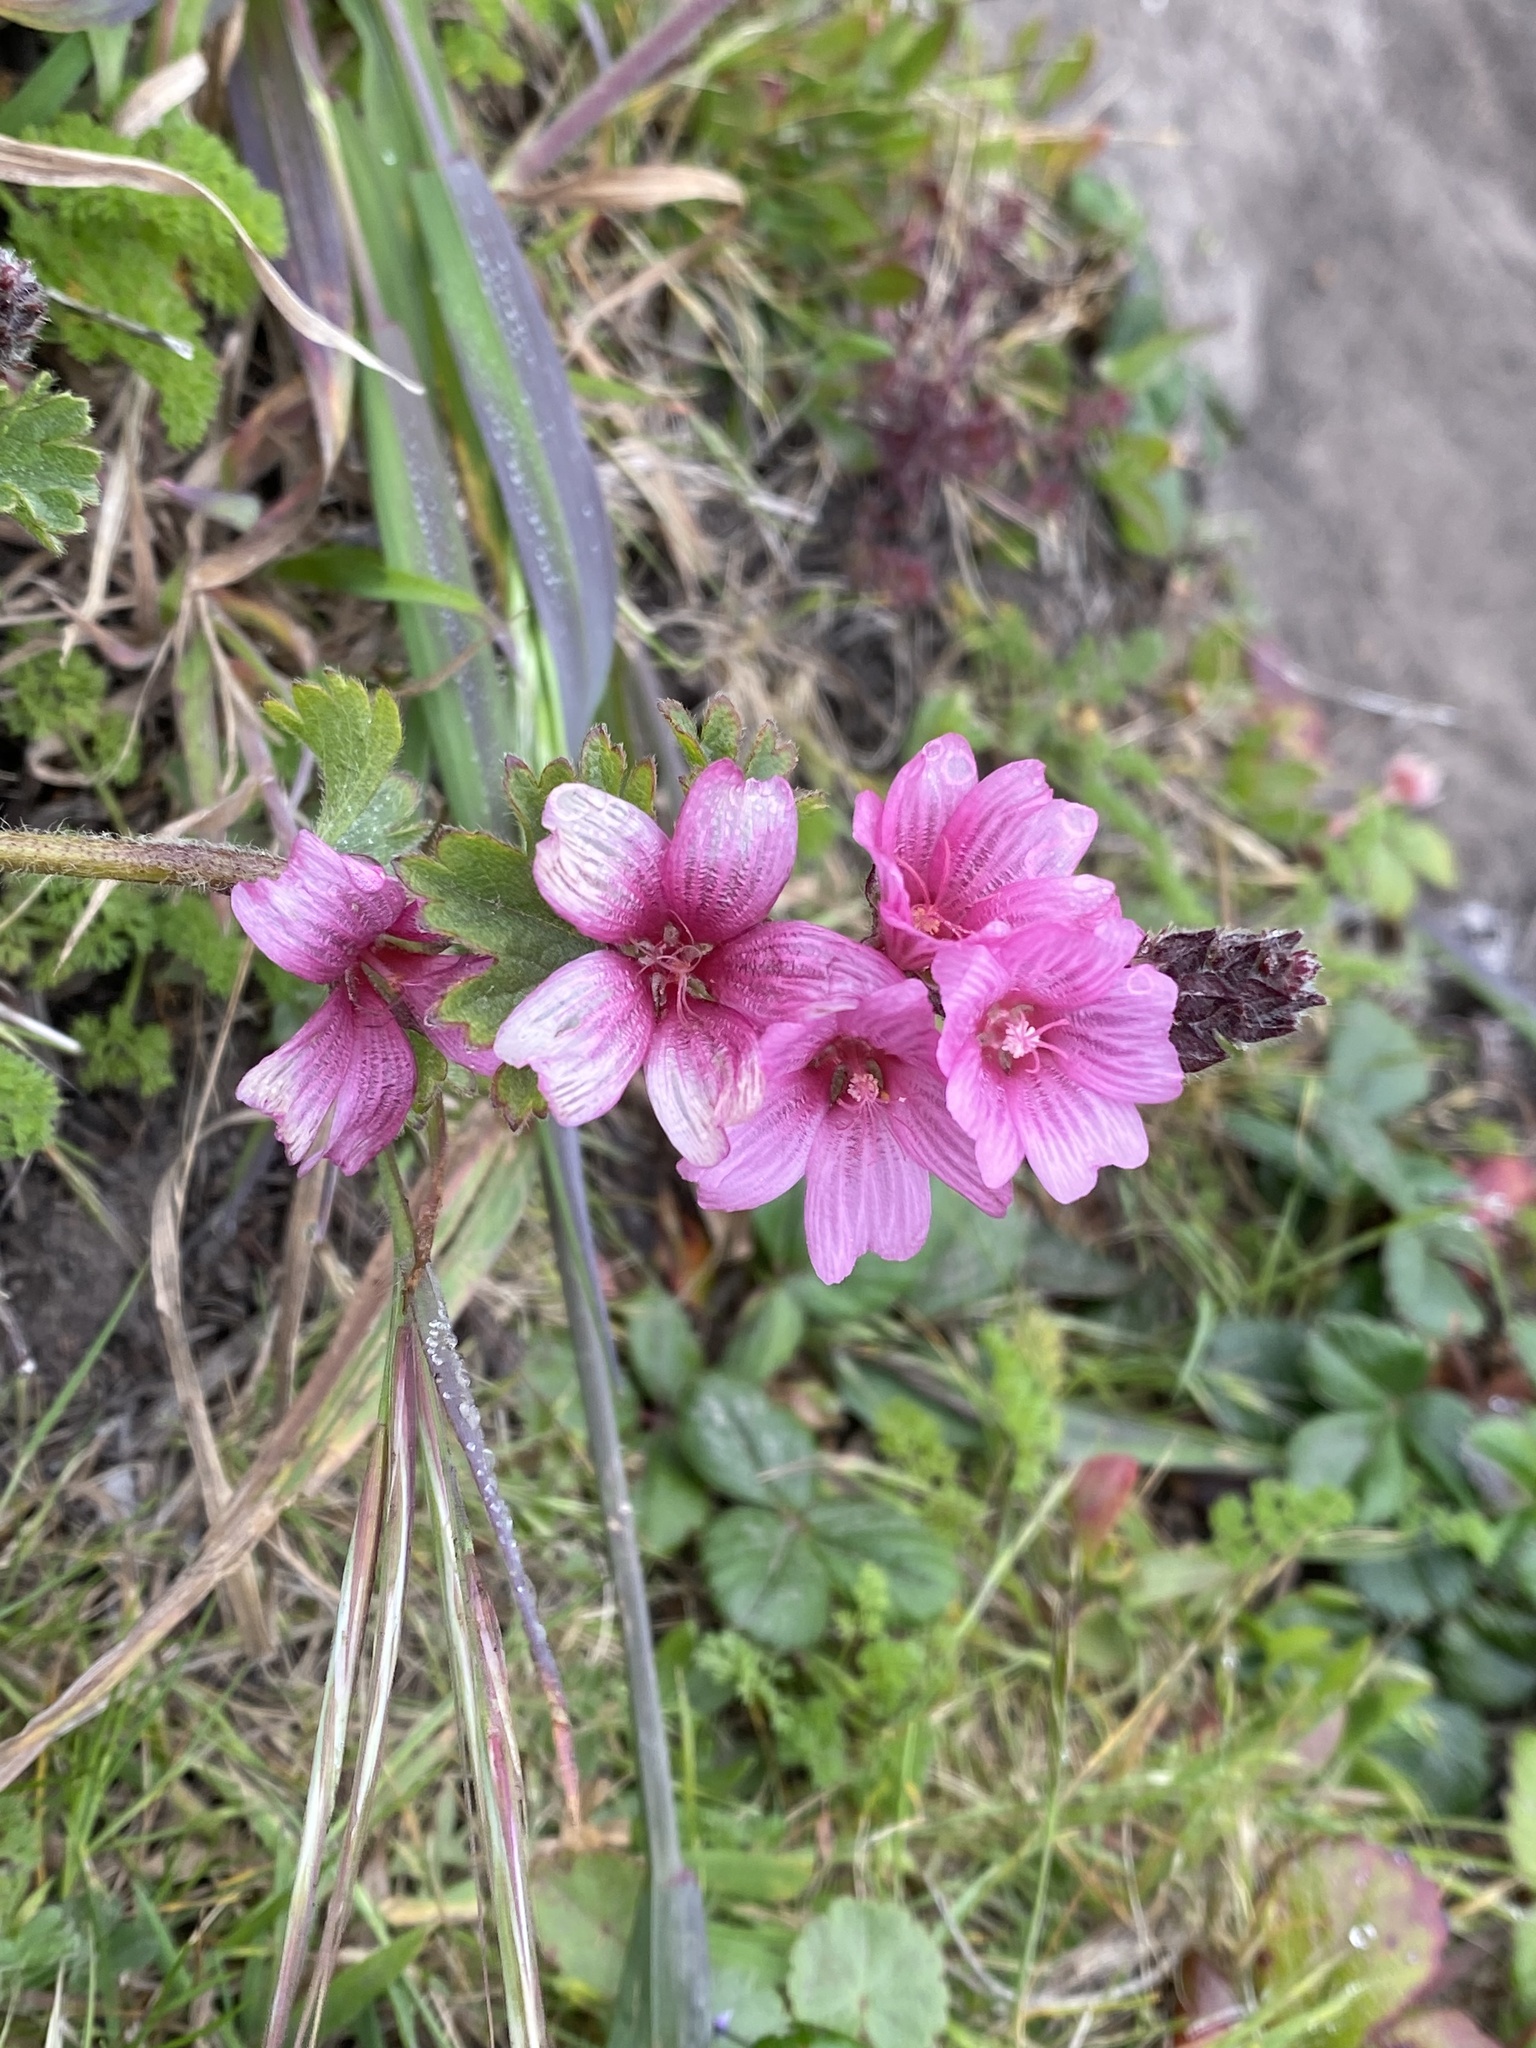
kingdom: Plantae
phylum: Tracheophyta
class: Magnoliopsida
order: Malvales
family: Malvaceae
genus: Sidalcea
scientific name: Sidalcea malviflora
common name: Greek mallow
